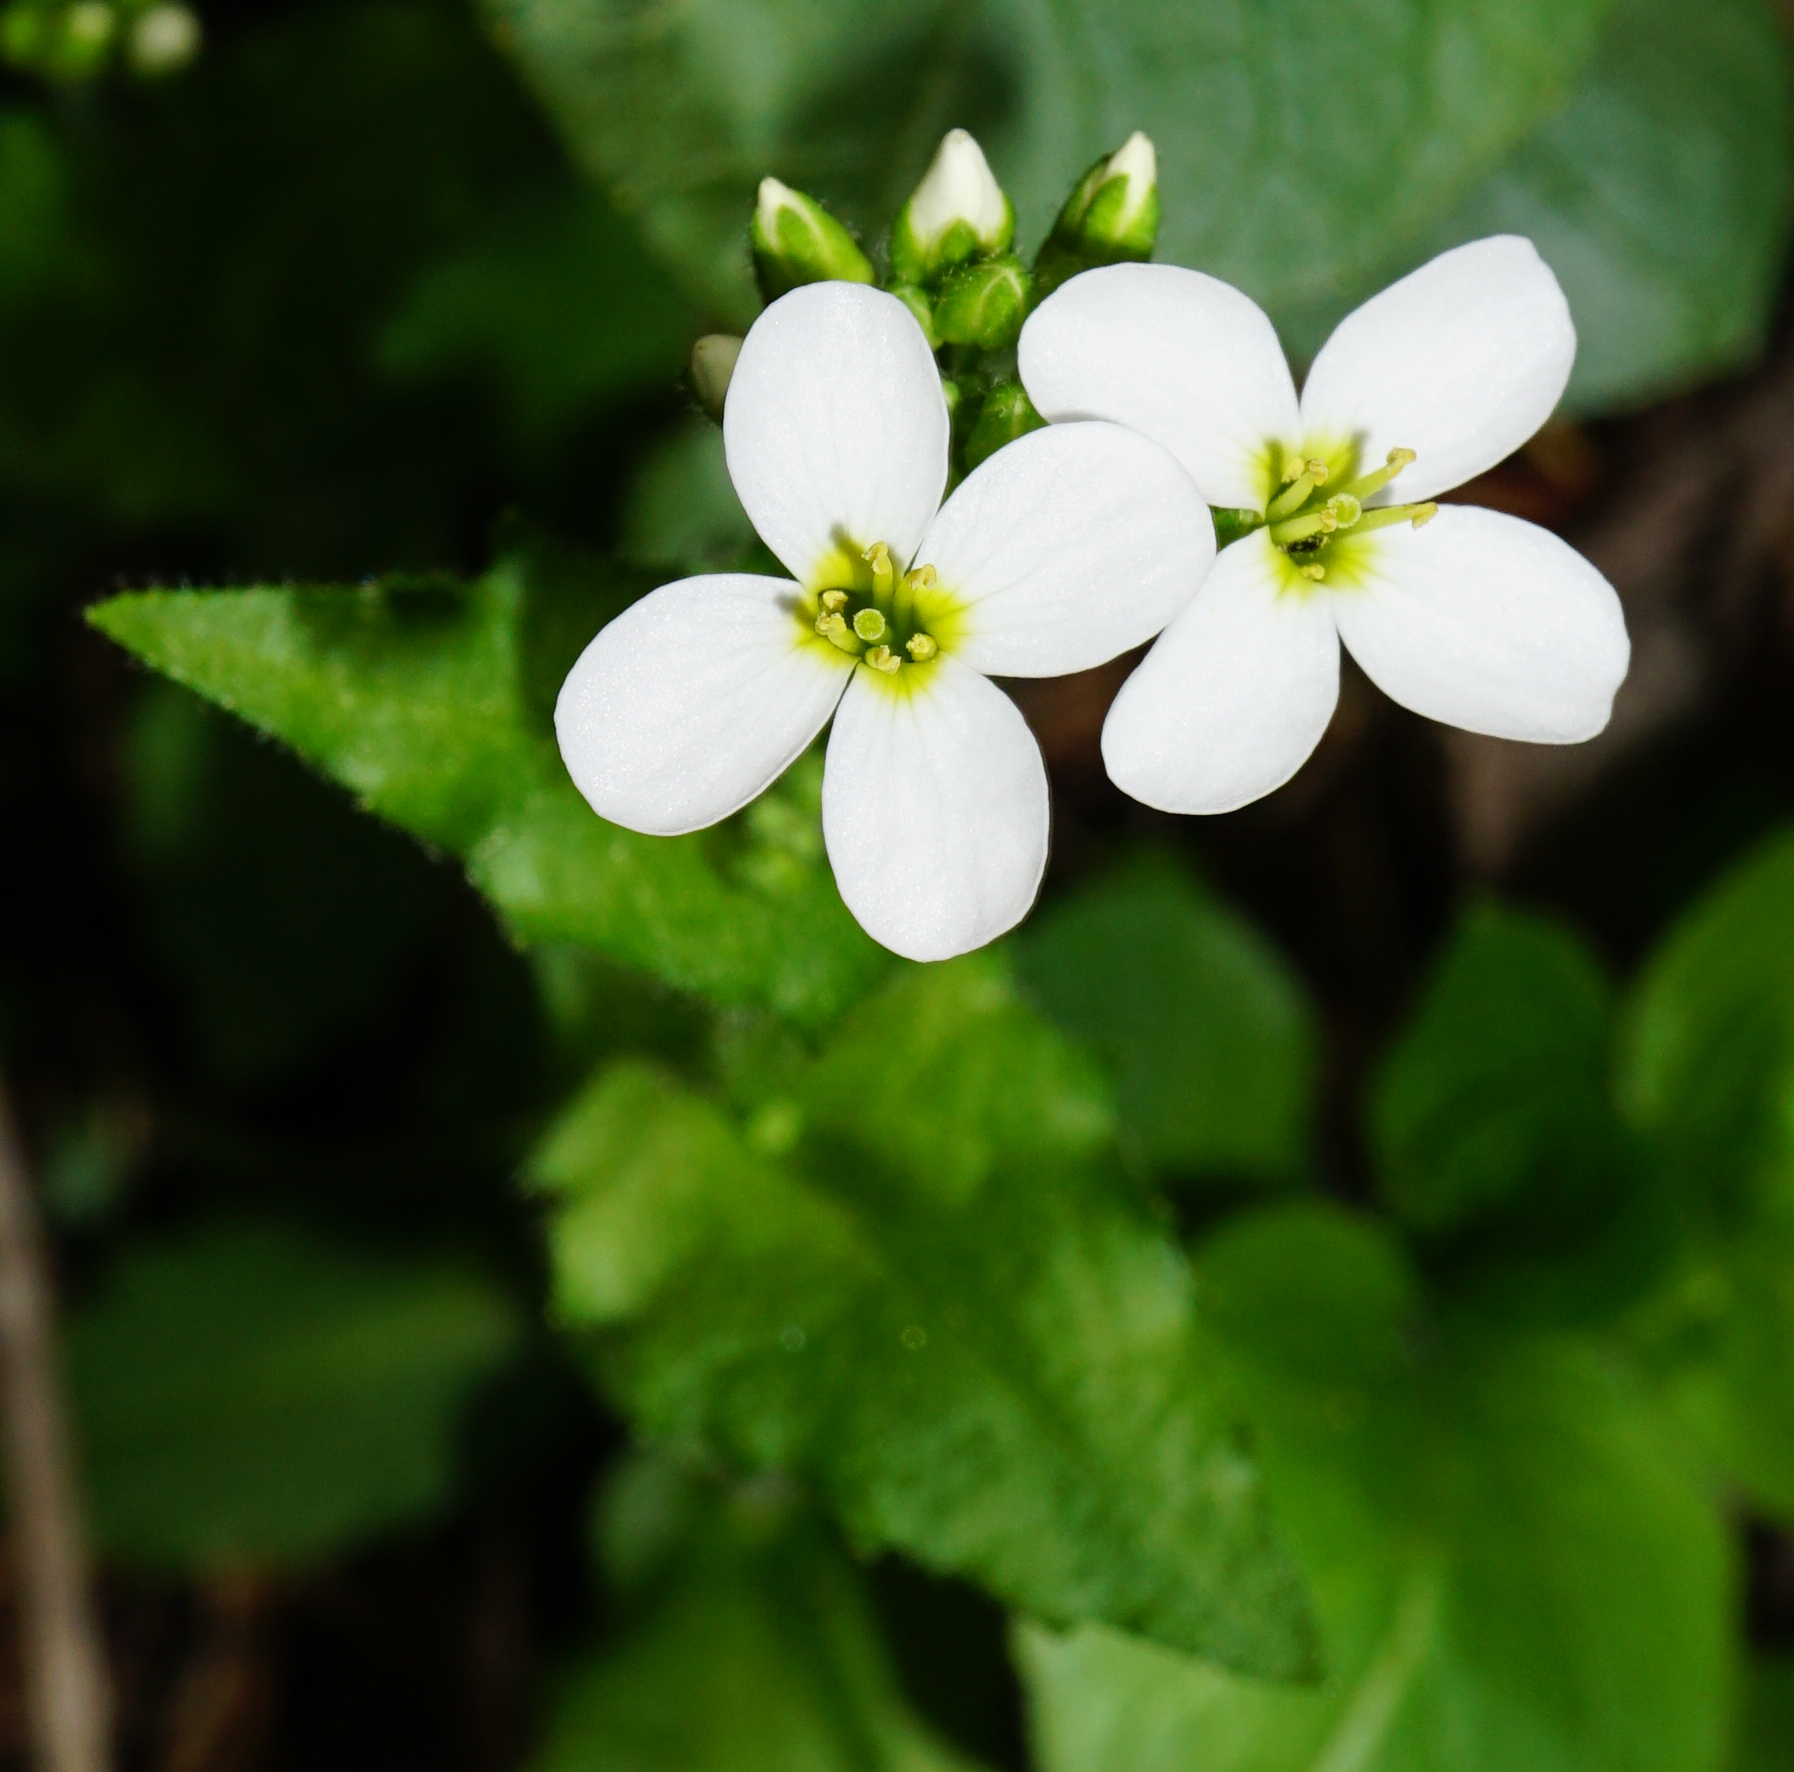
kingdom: Plantae
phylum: Tracheophyta
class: Magnoliopsida
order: Brassicales
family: Brassicaceae
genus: Arabis
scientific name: Arabis alpina
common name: Alpine rock-cress
